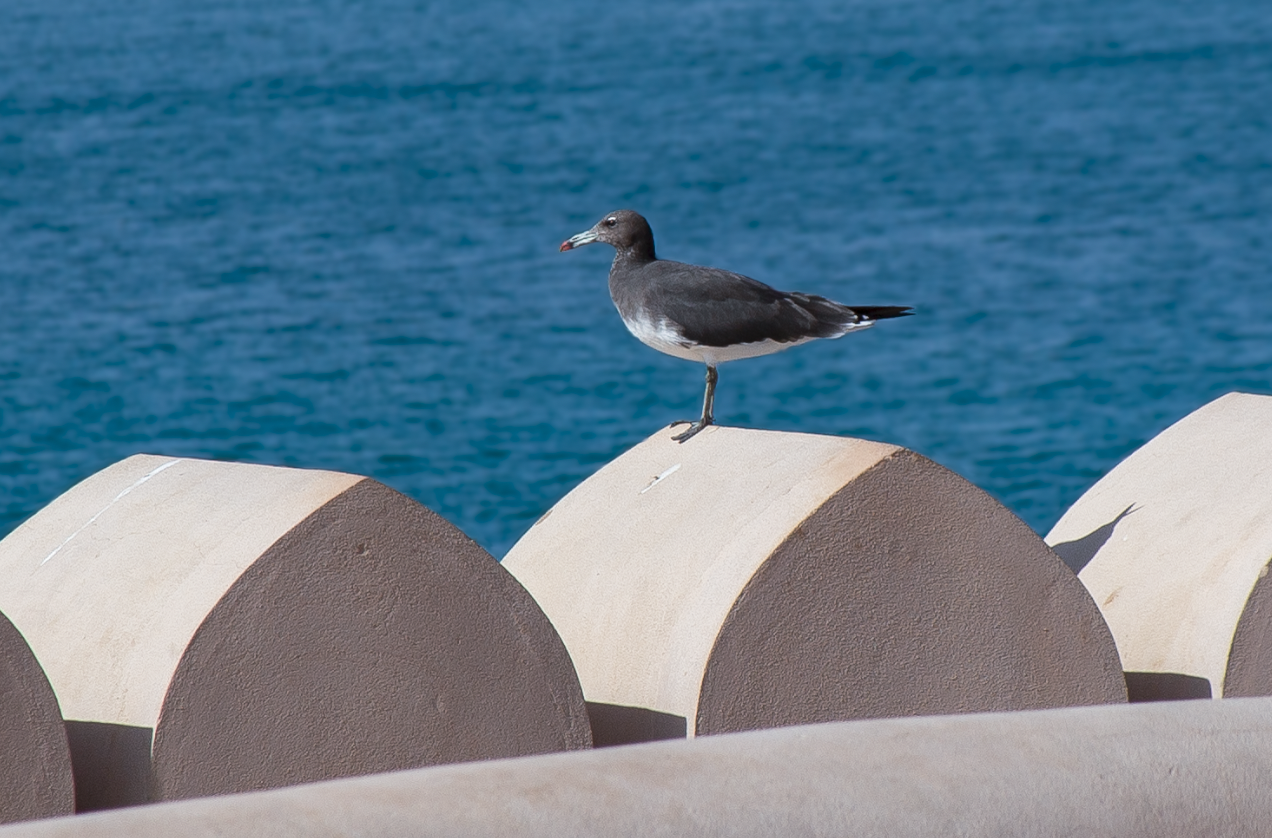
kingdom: Animalia
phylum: Chordata
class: Aves
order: Charadriiformes
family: Laridae
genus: Ichthyaetus
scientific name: Ichthyaetus hemprichii
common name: Sooty gull
